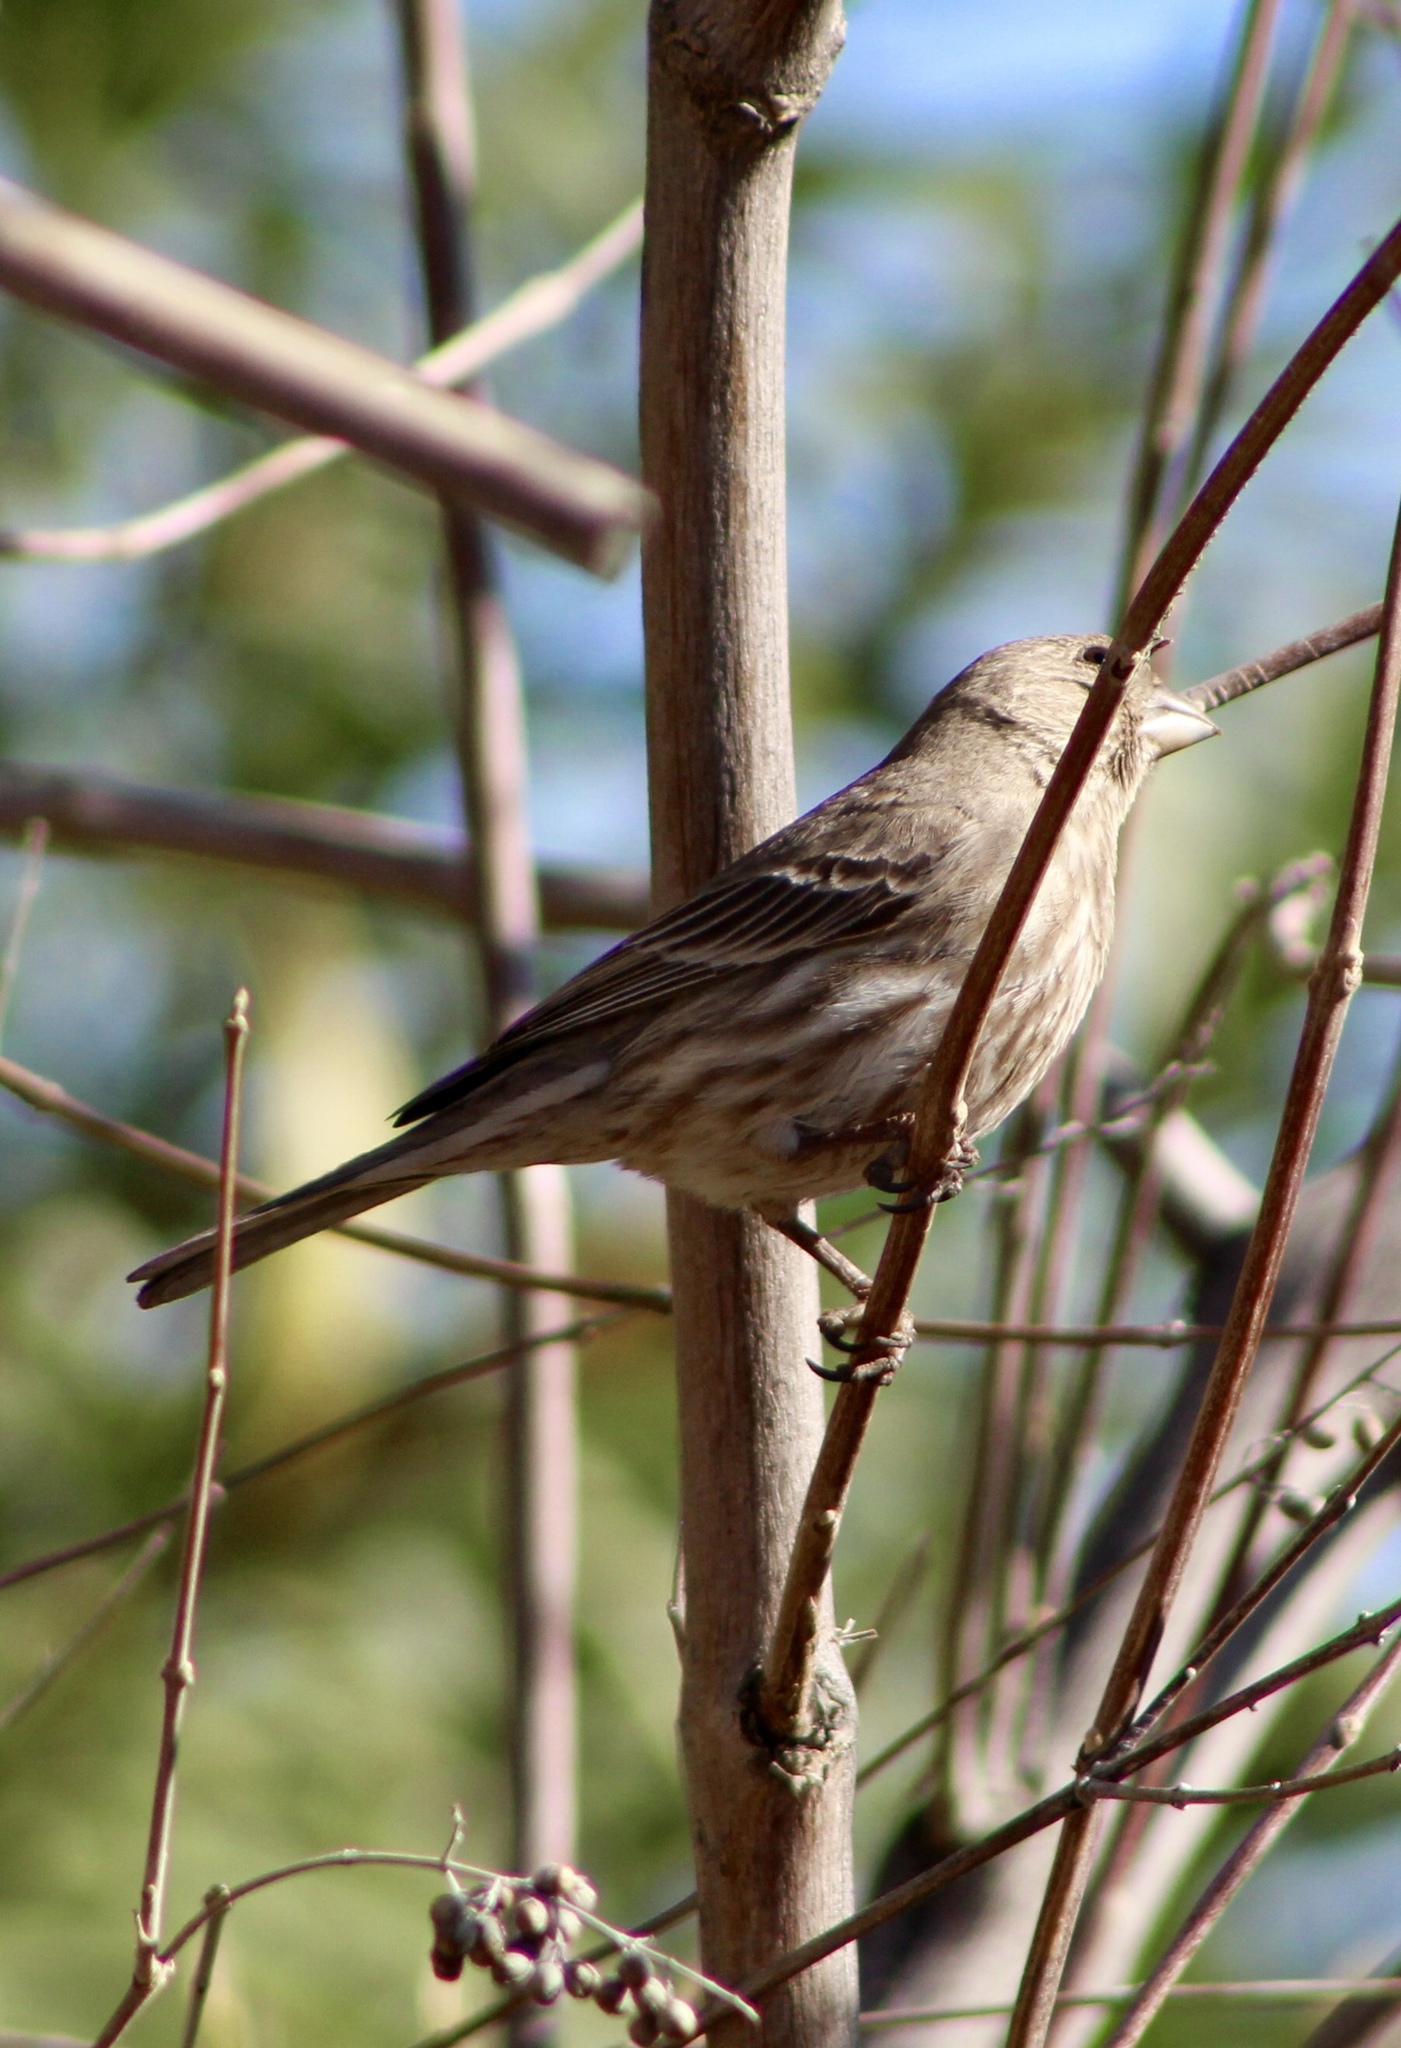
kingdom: Animalia
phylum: Chordata
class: Aves
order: Passeriformes
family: Fringillidae
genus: Haemorhous
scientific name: Haemorhous mexicanus
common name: House finch
